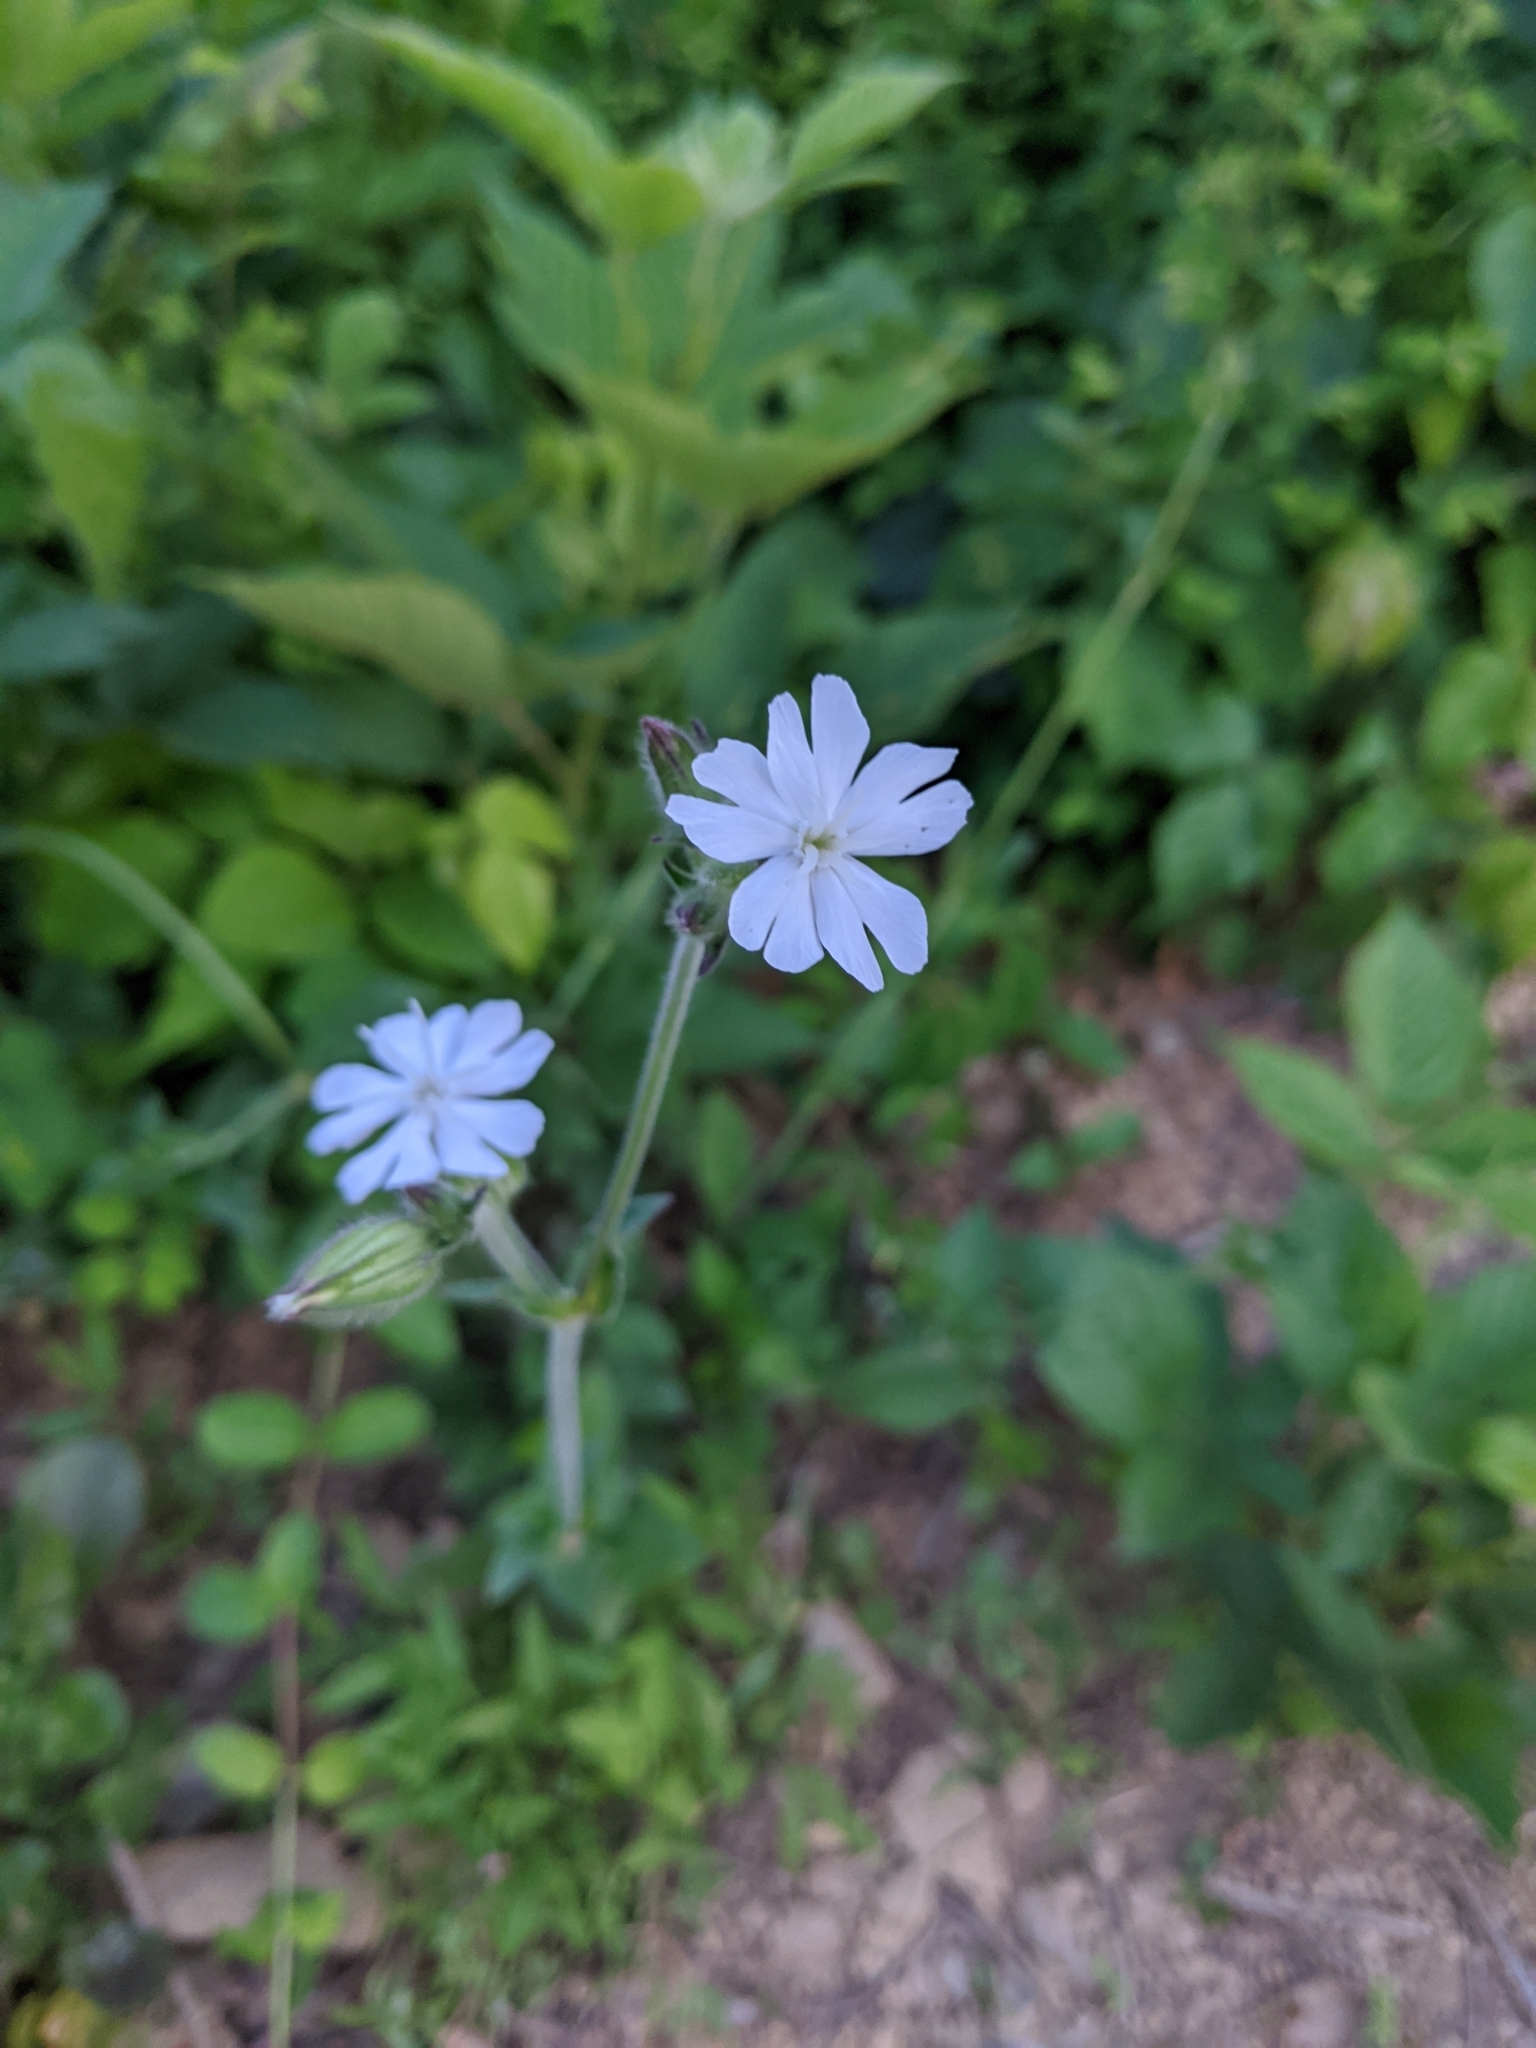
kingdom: Plantae
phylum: Tracheophyta
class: Magnoliopsida
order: Caryophyllales
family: Caryophyllaceae
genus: Silene
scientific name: Silene latifolia
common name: White campion
